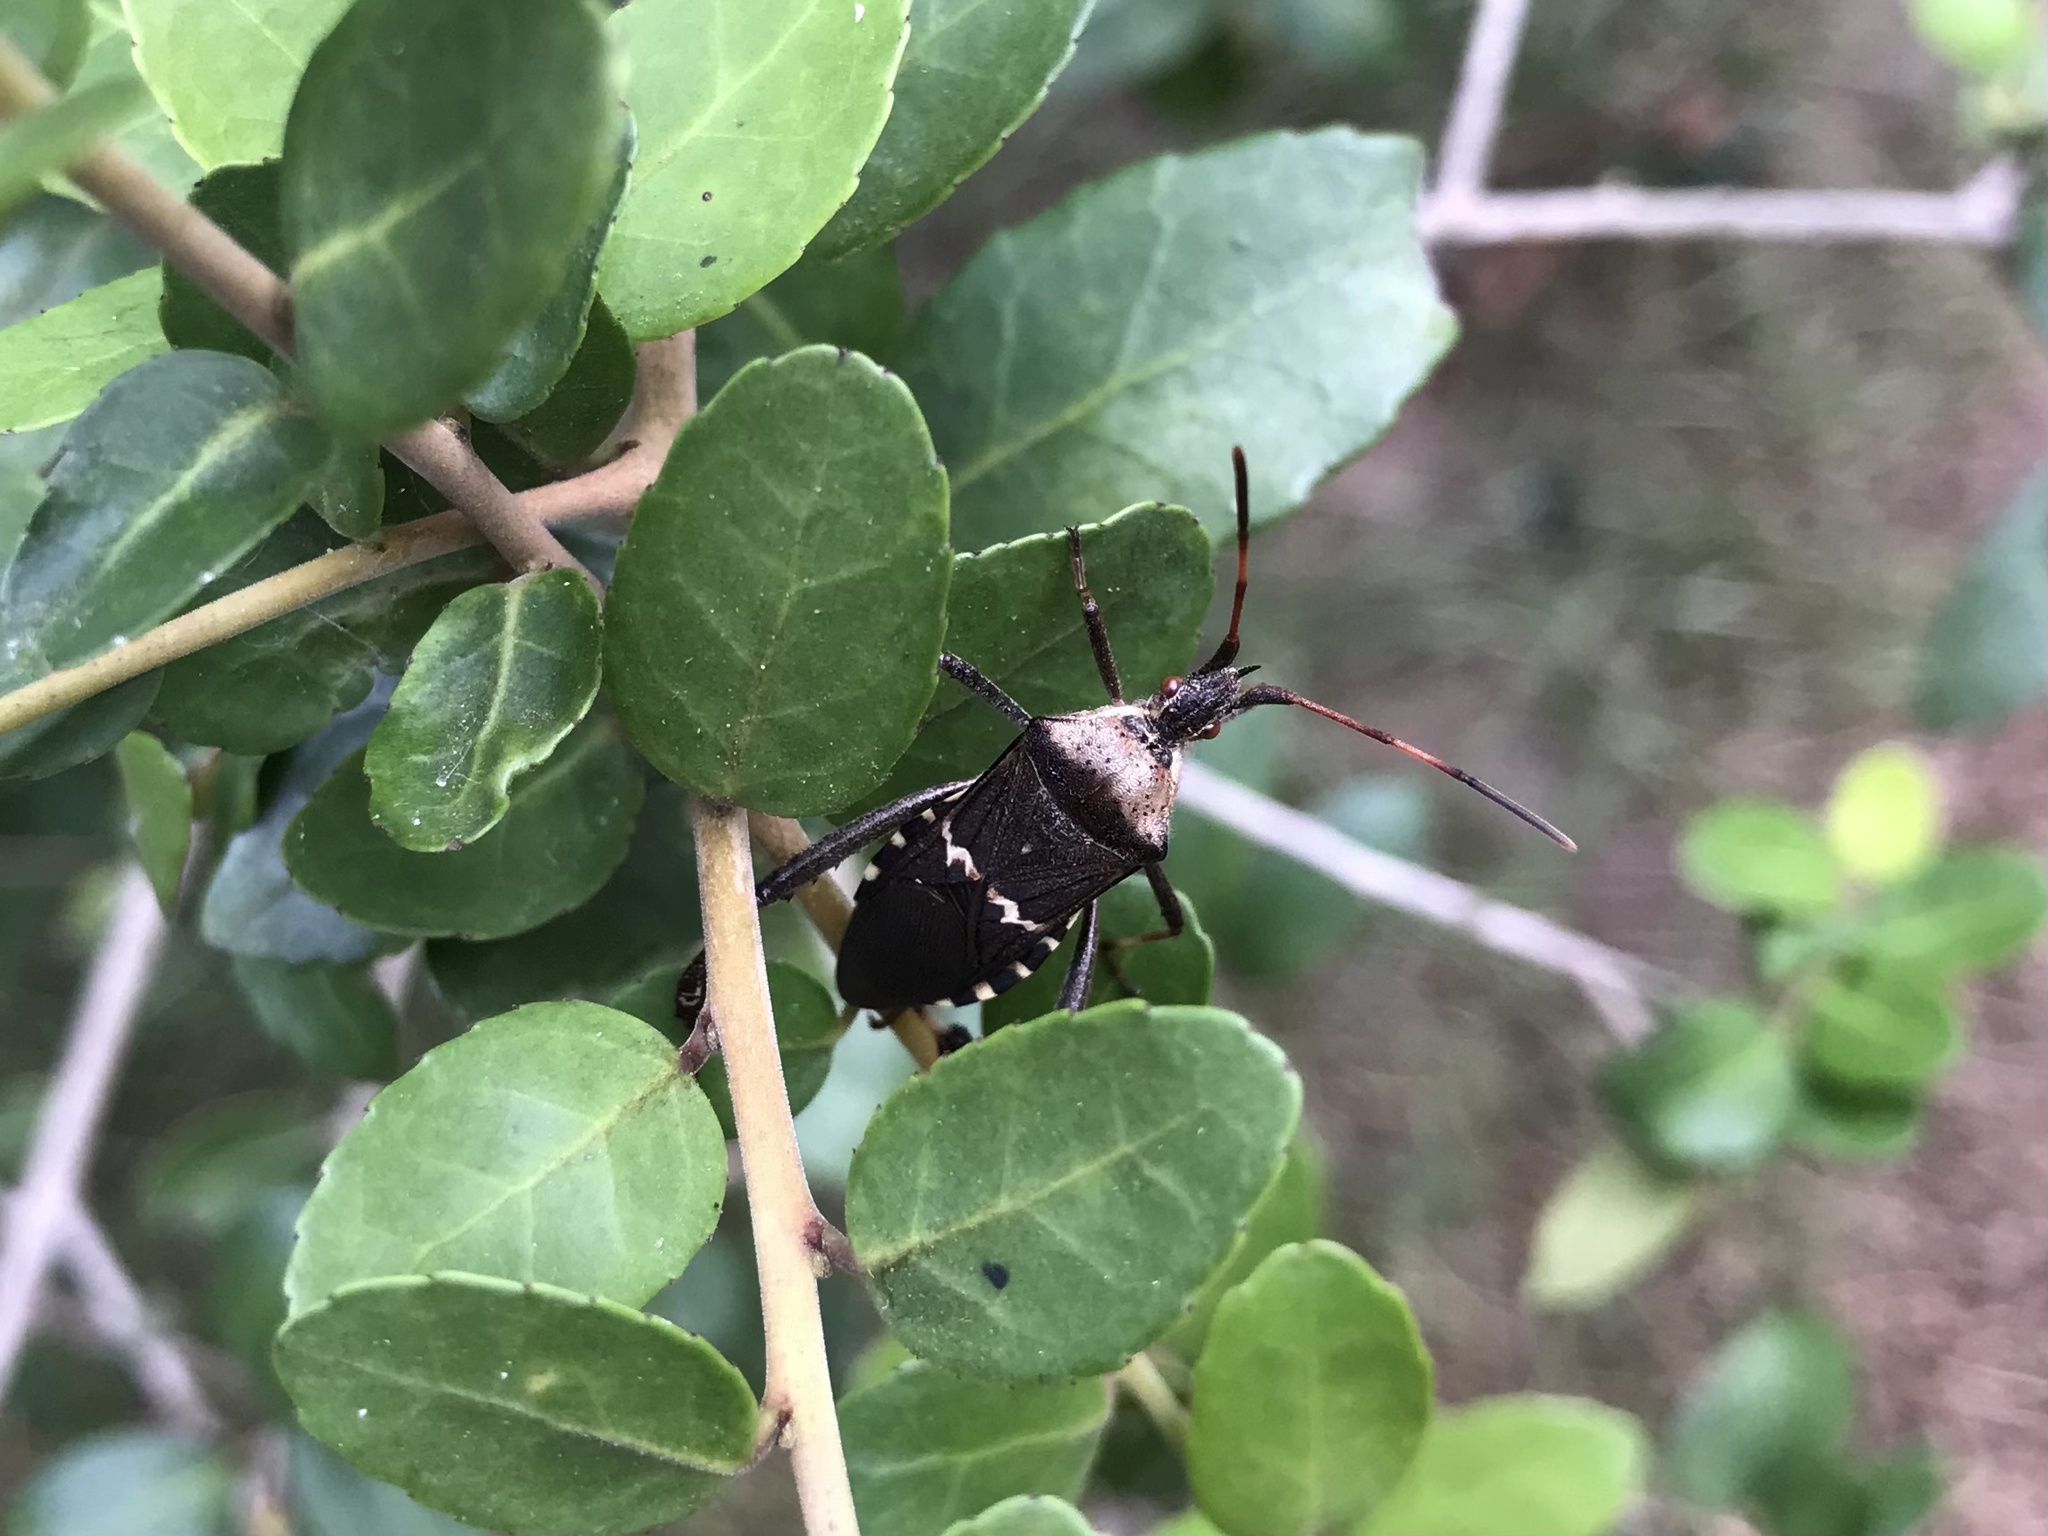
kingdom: Animalia
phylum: Arthropoda
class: Insecta
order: Hemiptera
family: Coreidae
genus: Leptoglossus
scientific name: Leptoglossus clypealis
